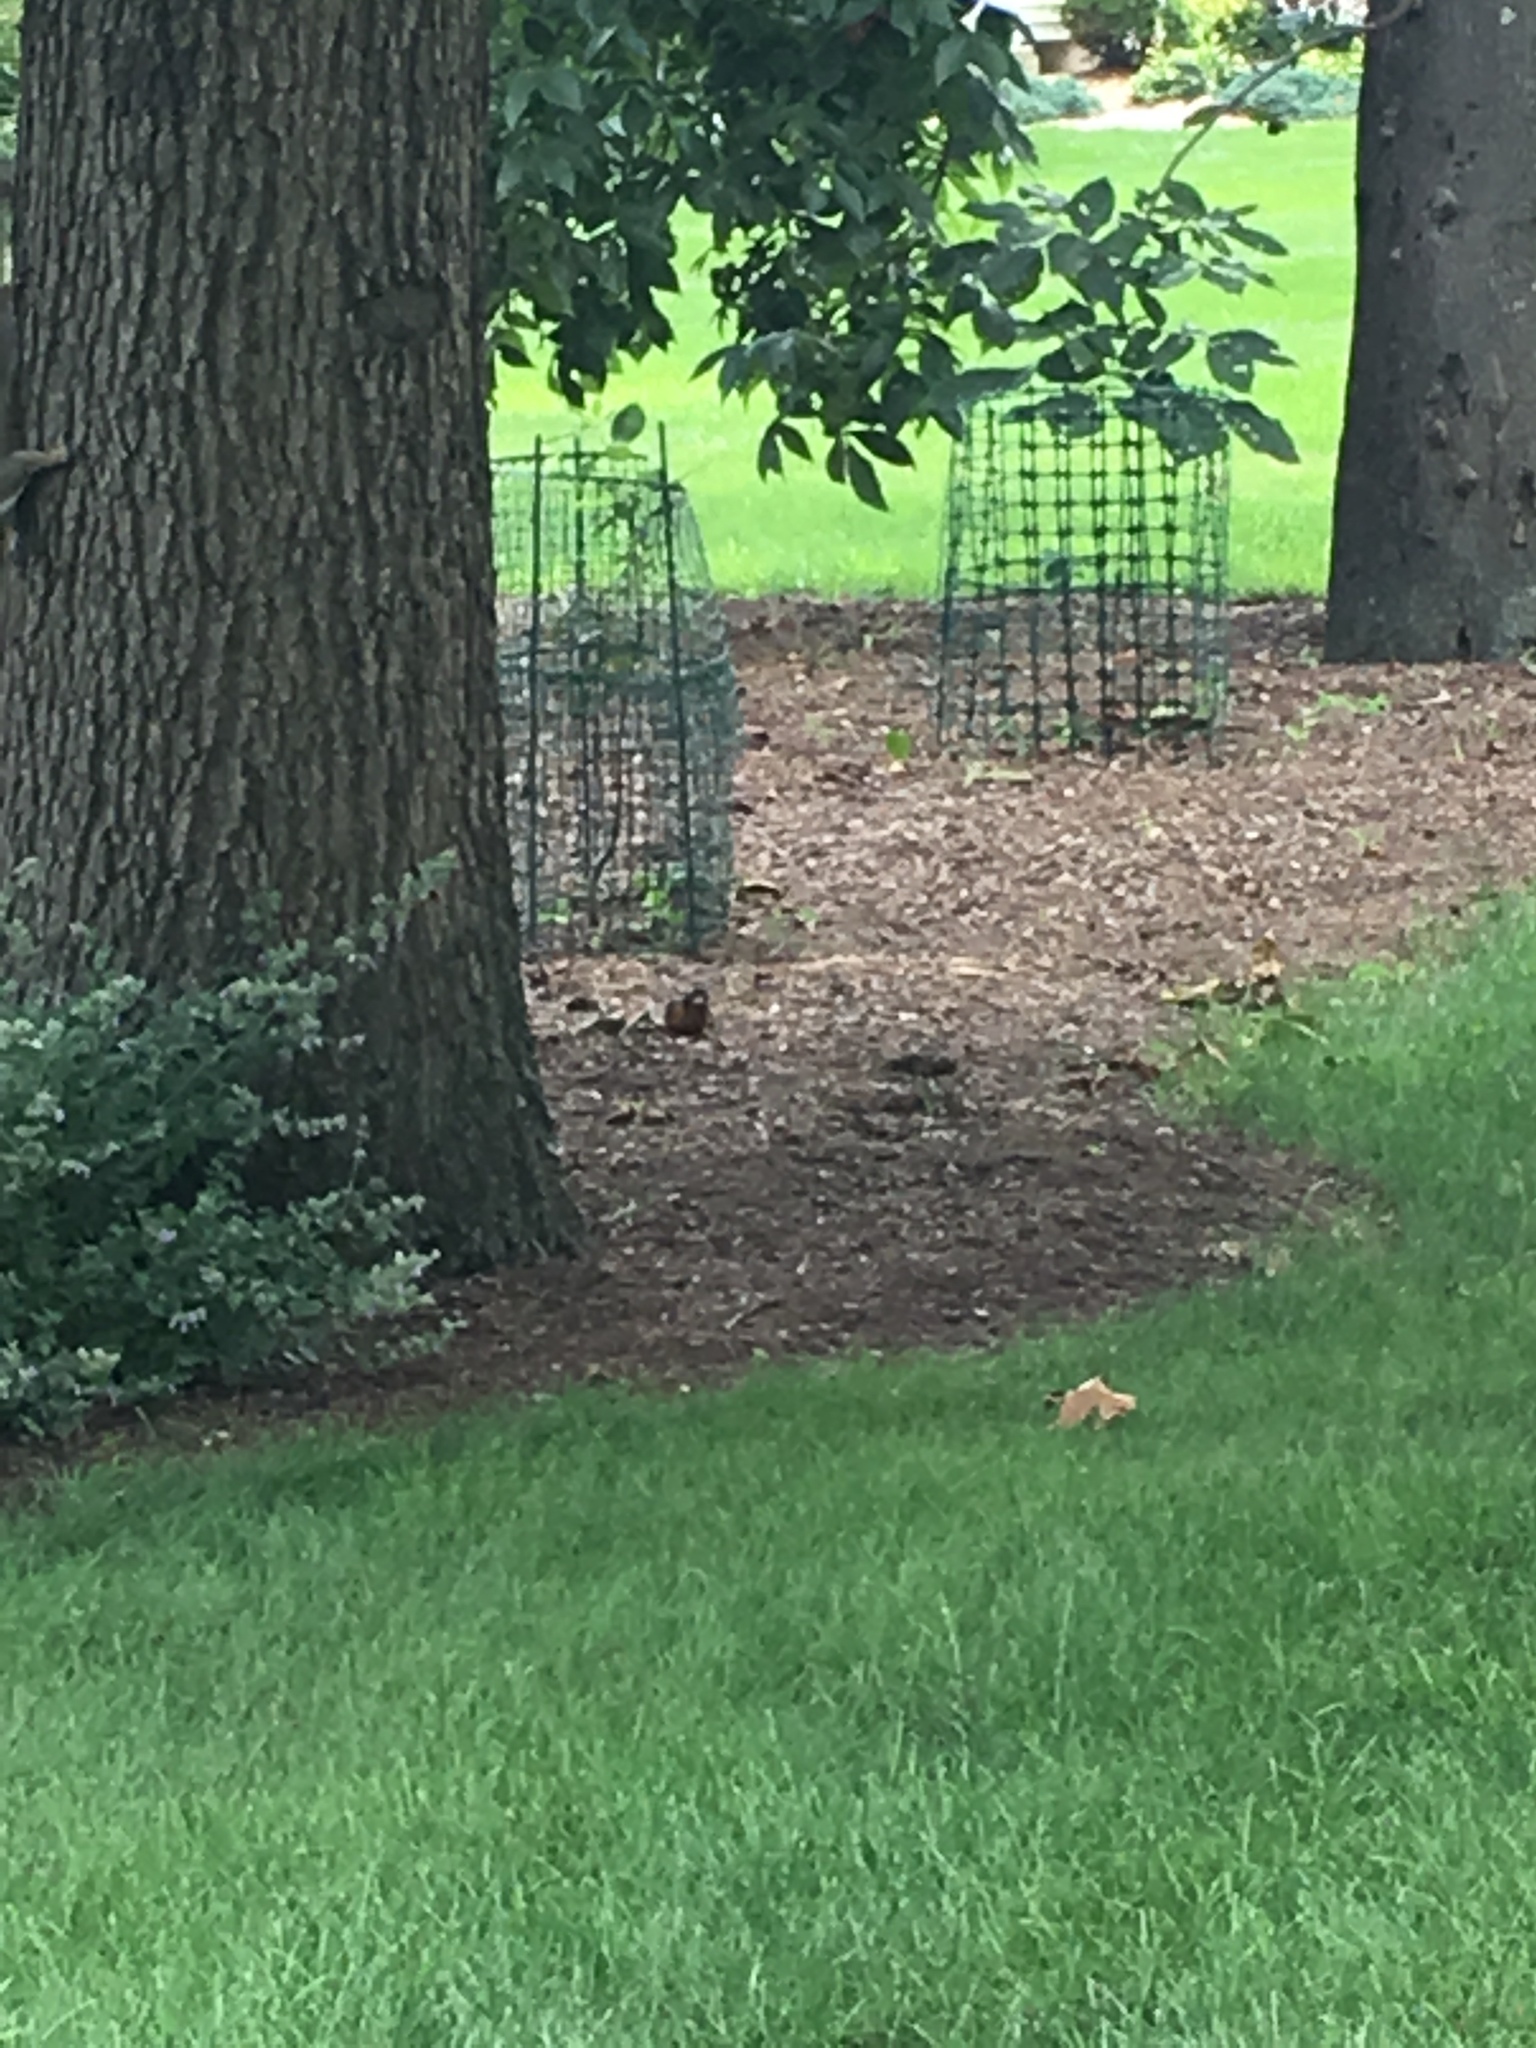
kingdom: Animalia
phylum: Chordata
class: Aves
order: Passeriformes
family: Turdidae
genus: Turdus
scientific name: Turdus migratorius
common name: American robin
